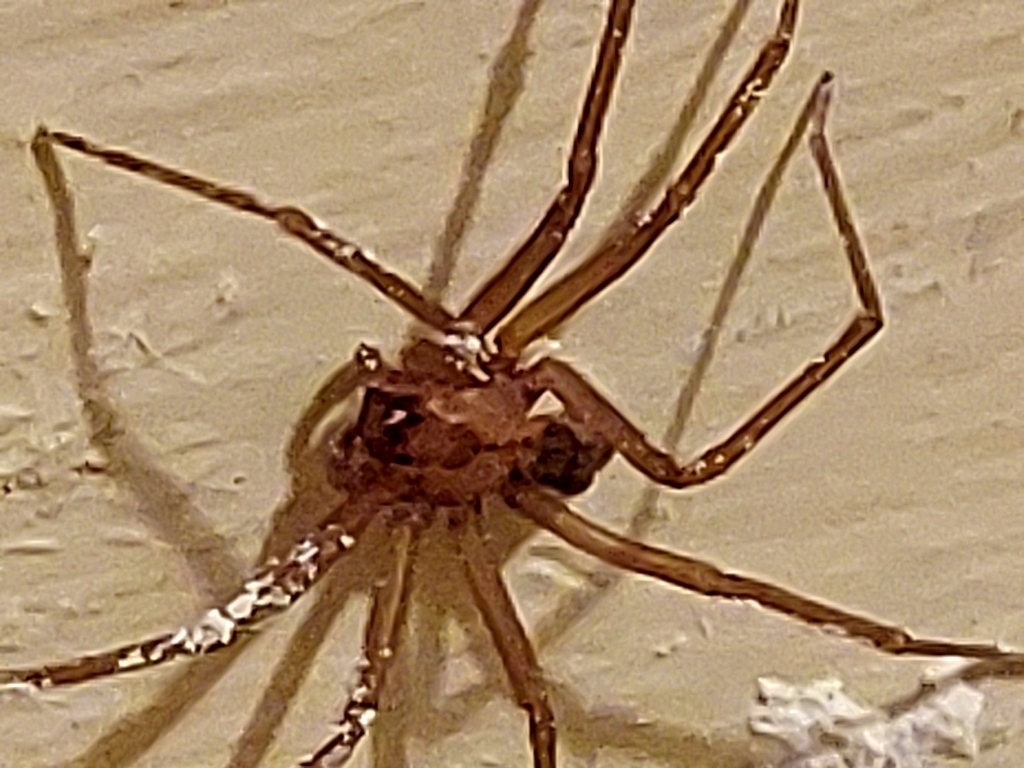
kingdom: Animalia
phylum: Arthropoda
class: Arachnida
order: Araneae
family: Sicariidae
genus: Loxosceles
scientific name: Loxosceles reclusa
